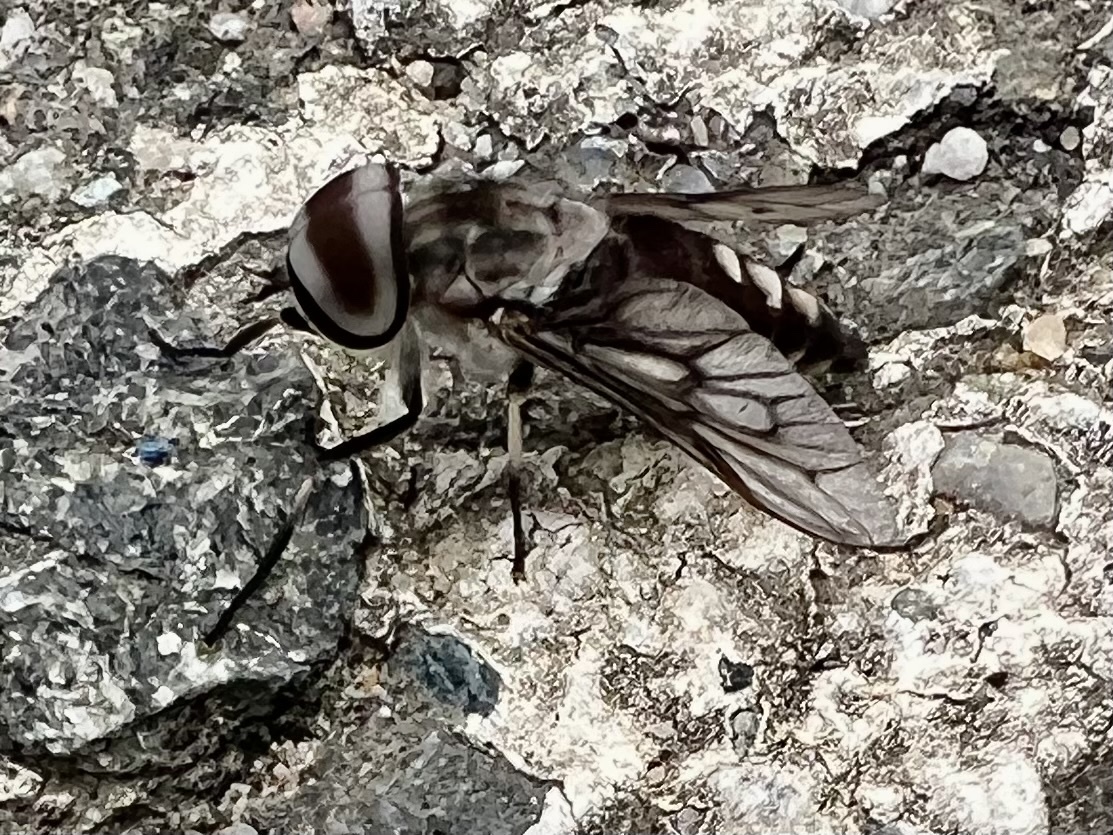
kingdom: Animalia
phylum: Arthropoda
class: Insecta
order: Diptera
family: Tabanidae
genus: Tabanus
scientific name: Tabanus trimaculatus
